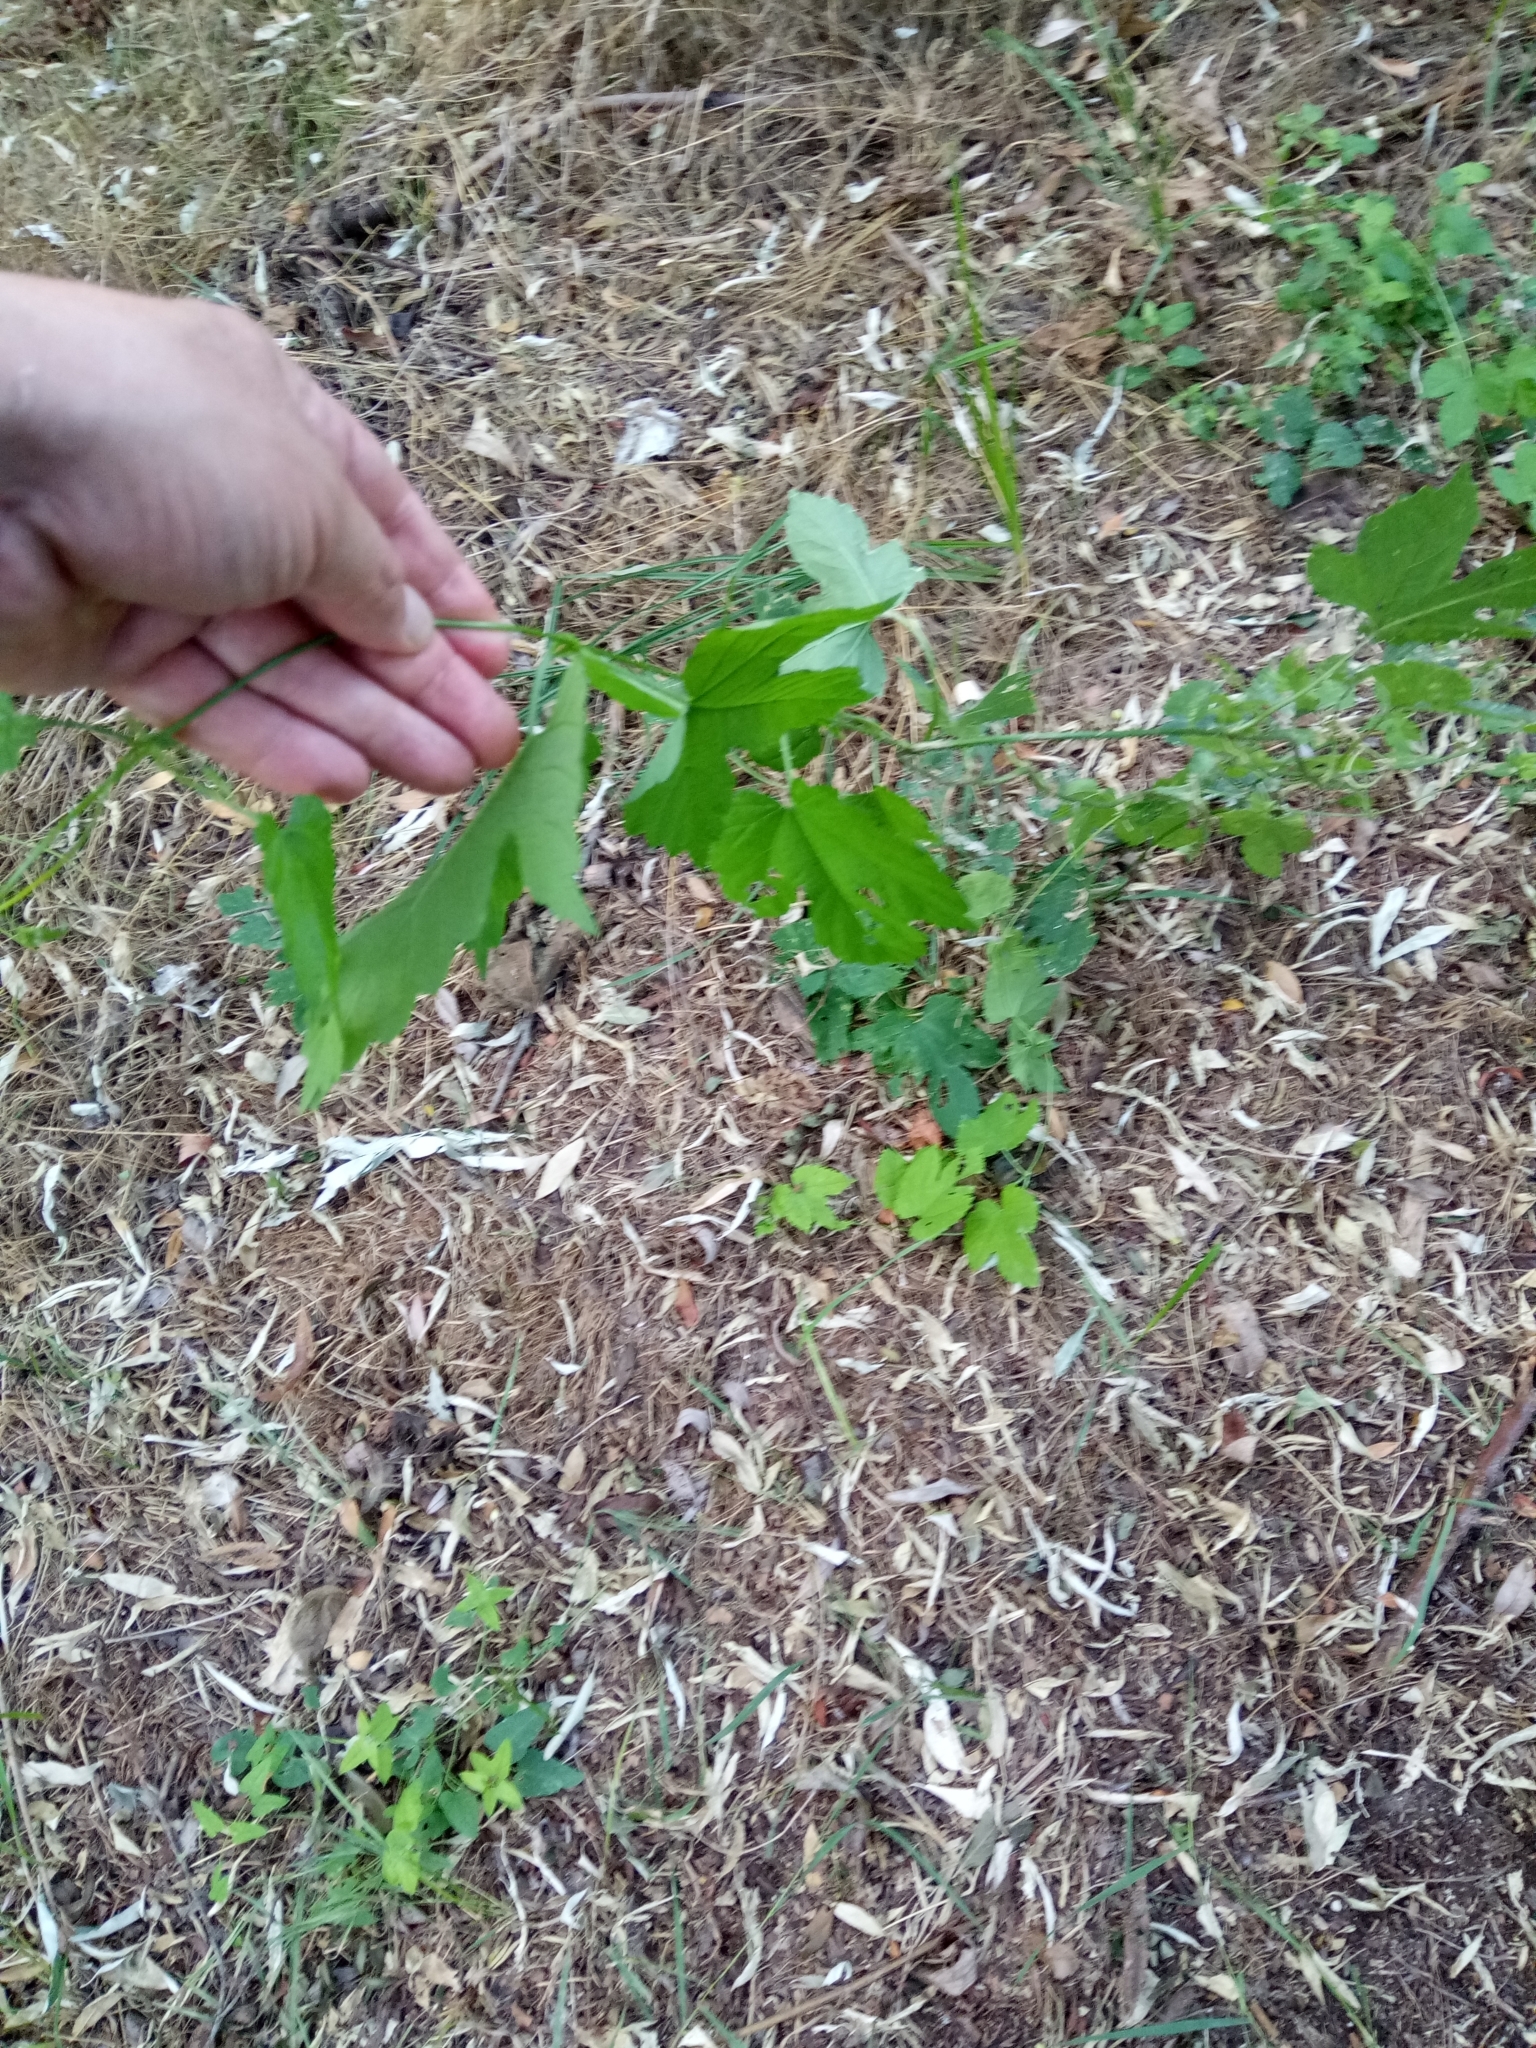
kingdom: Plantae
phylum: Tracheophyta
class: Magnoliopsida
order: Rosales
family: Cannabaceae
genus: Humulus
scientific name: Humulus lupulus
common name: Hop
